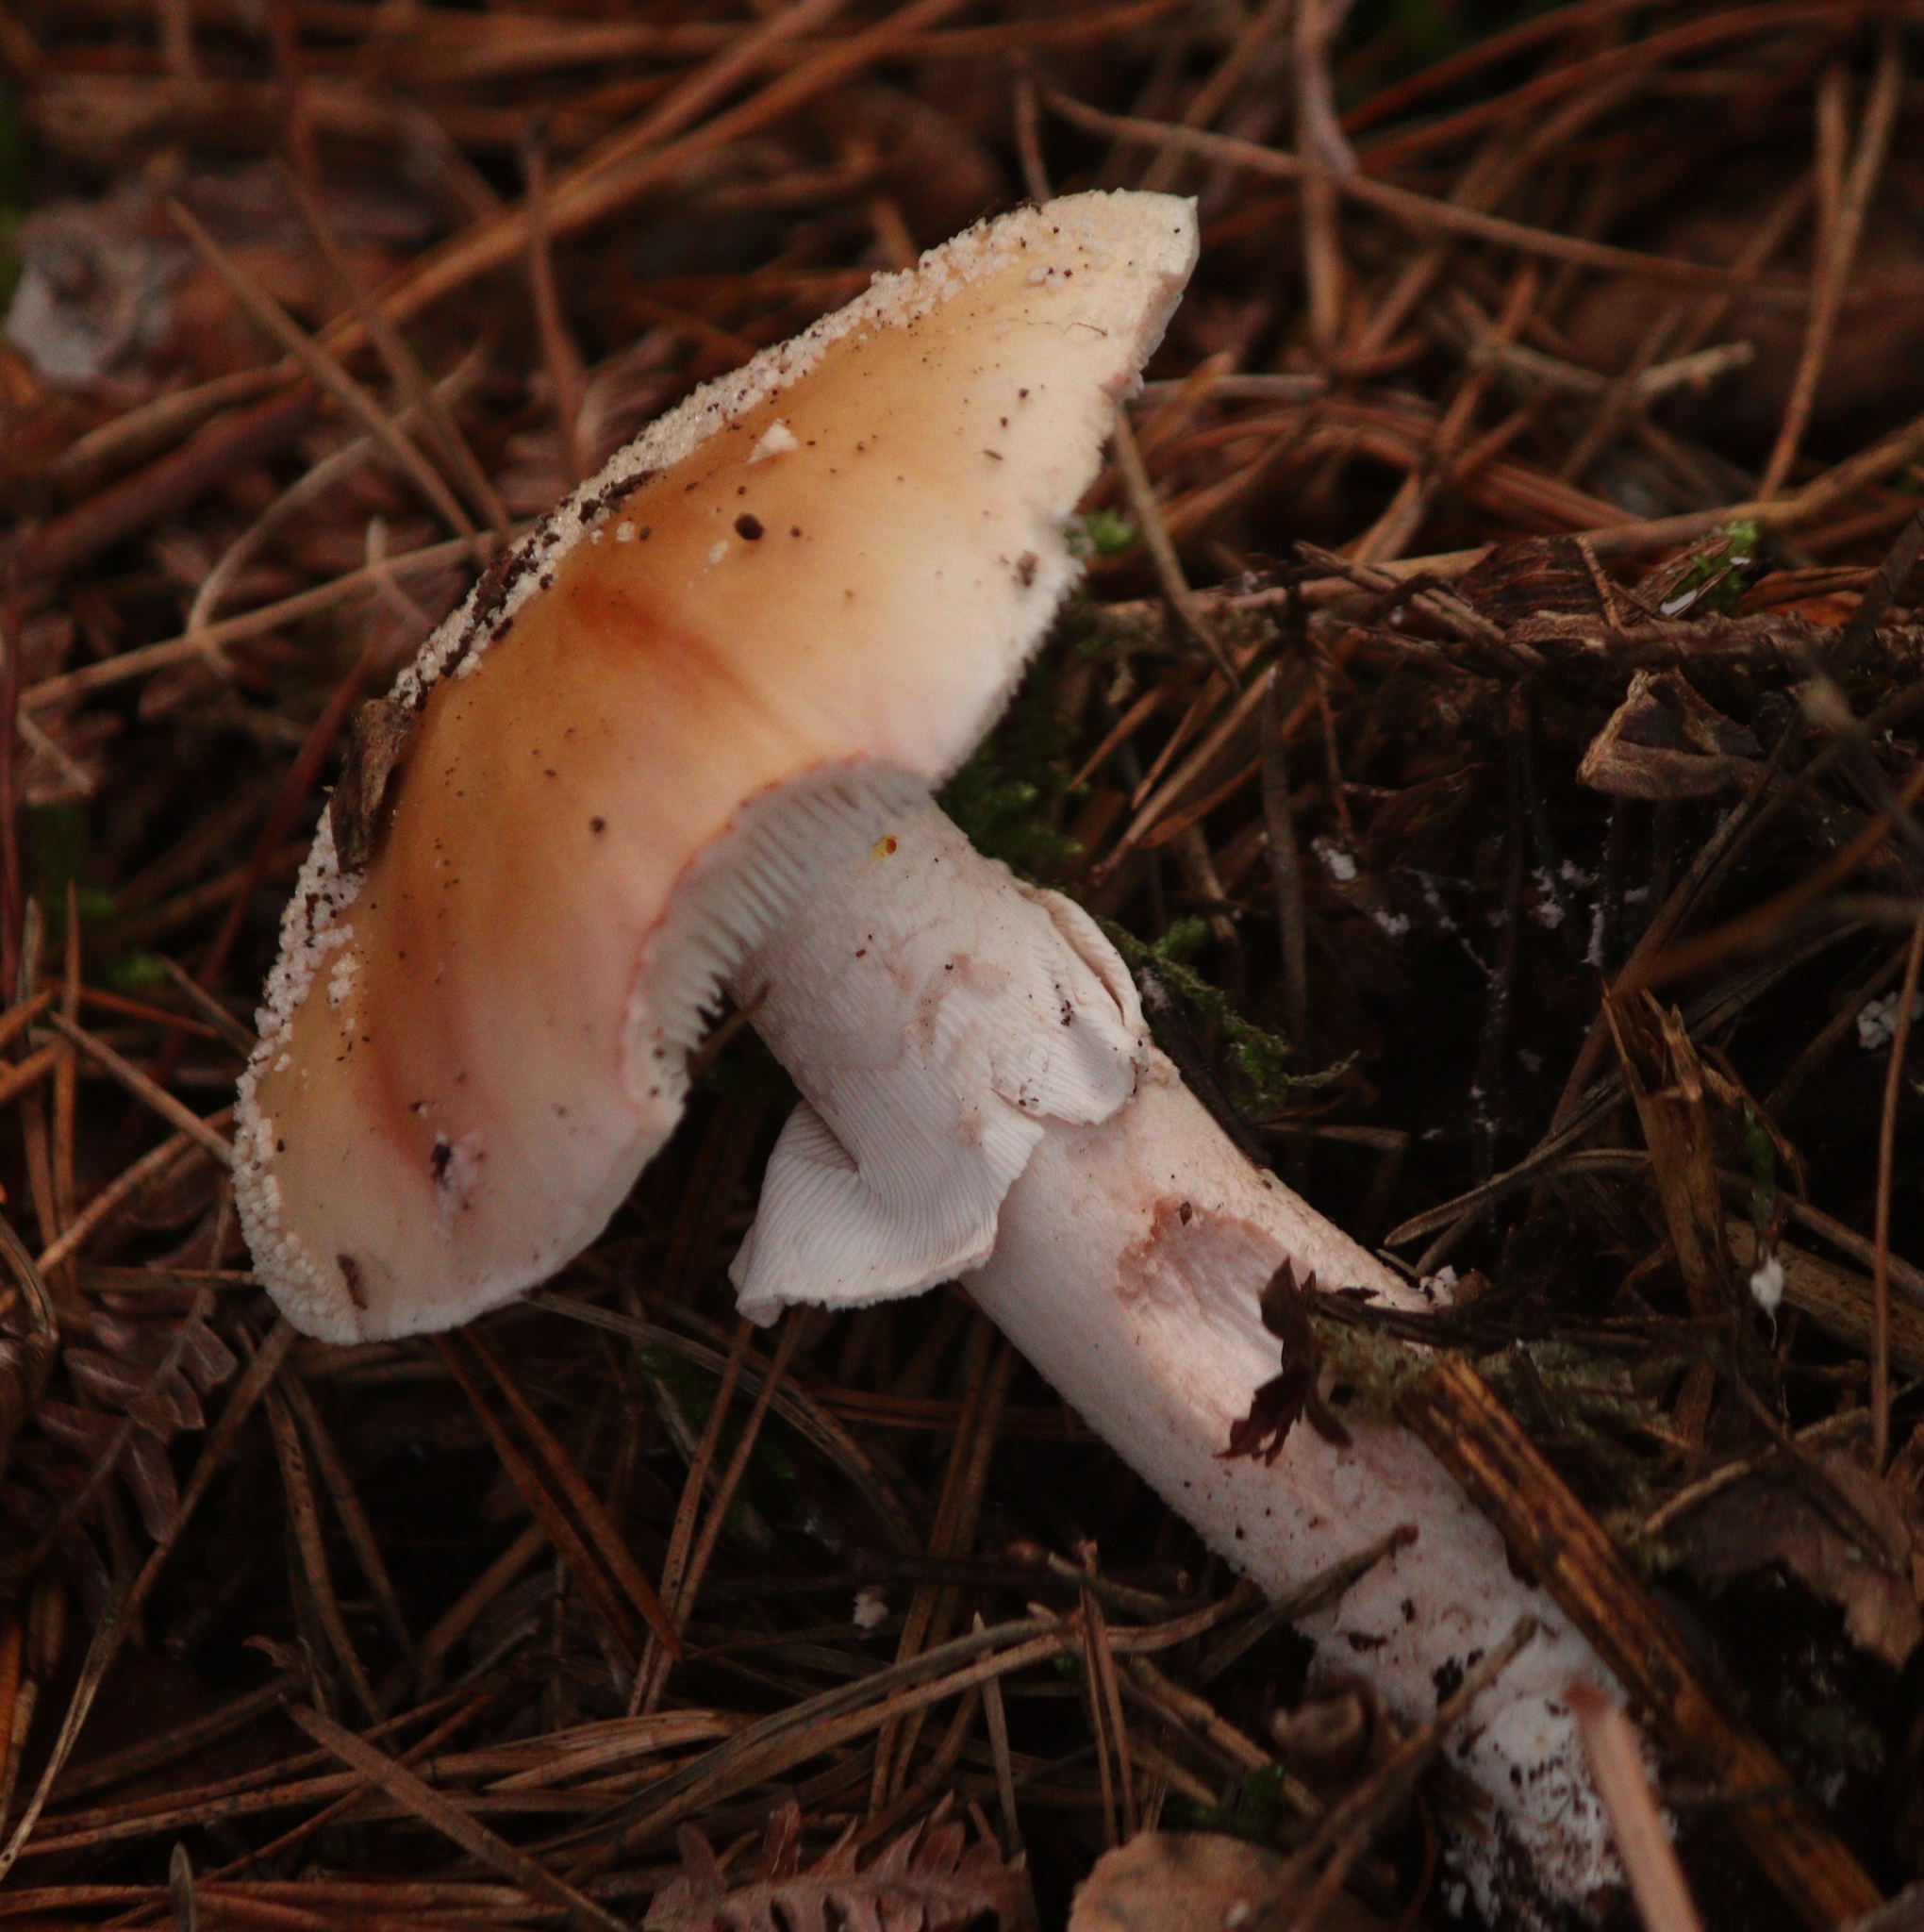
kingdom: Fungi
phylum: Basidiomycota
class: Agaricomycetes
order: Agaricales
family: Amanitaceae
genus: Amanita
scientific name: Amanita rubescens
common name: Blusher
